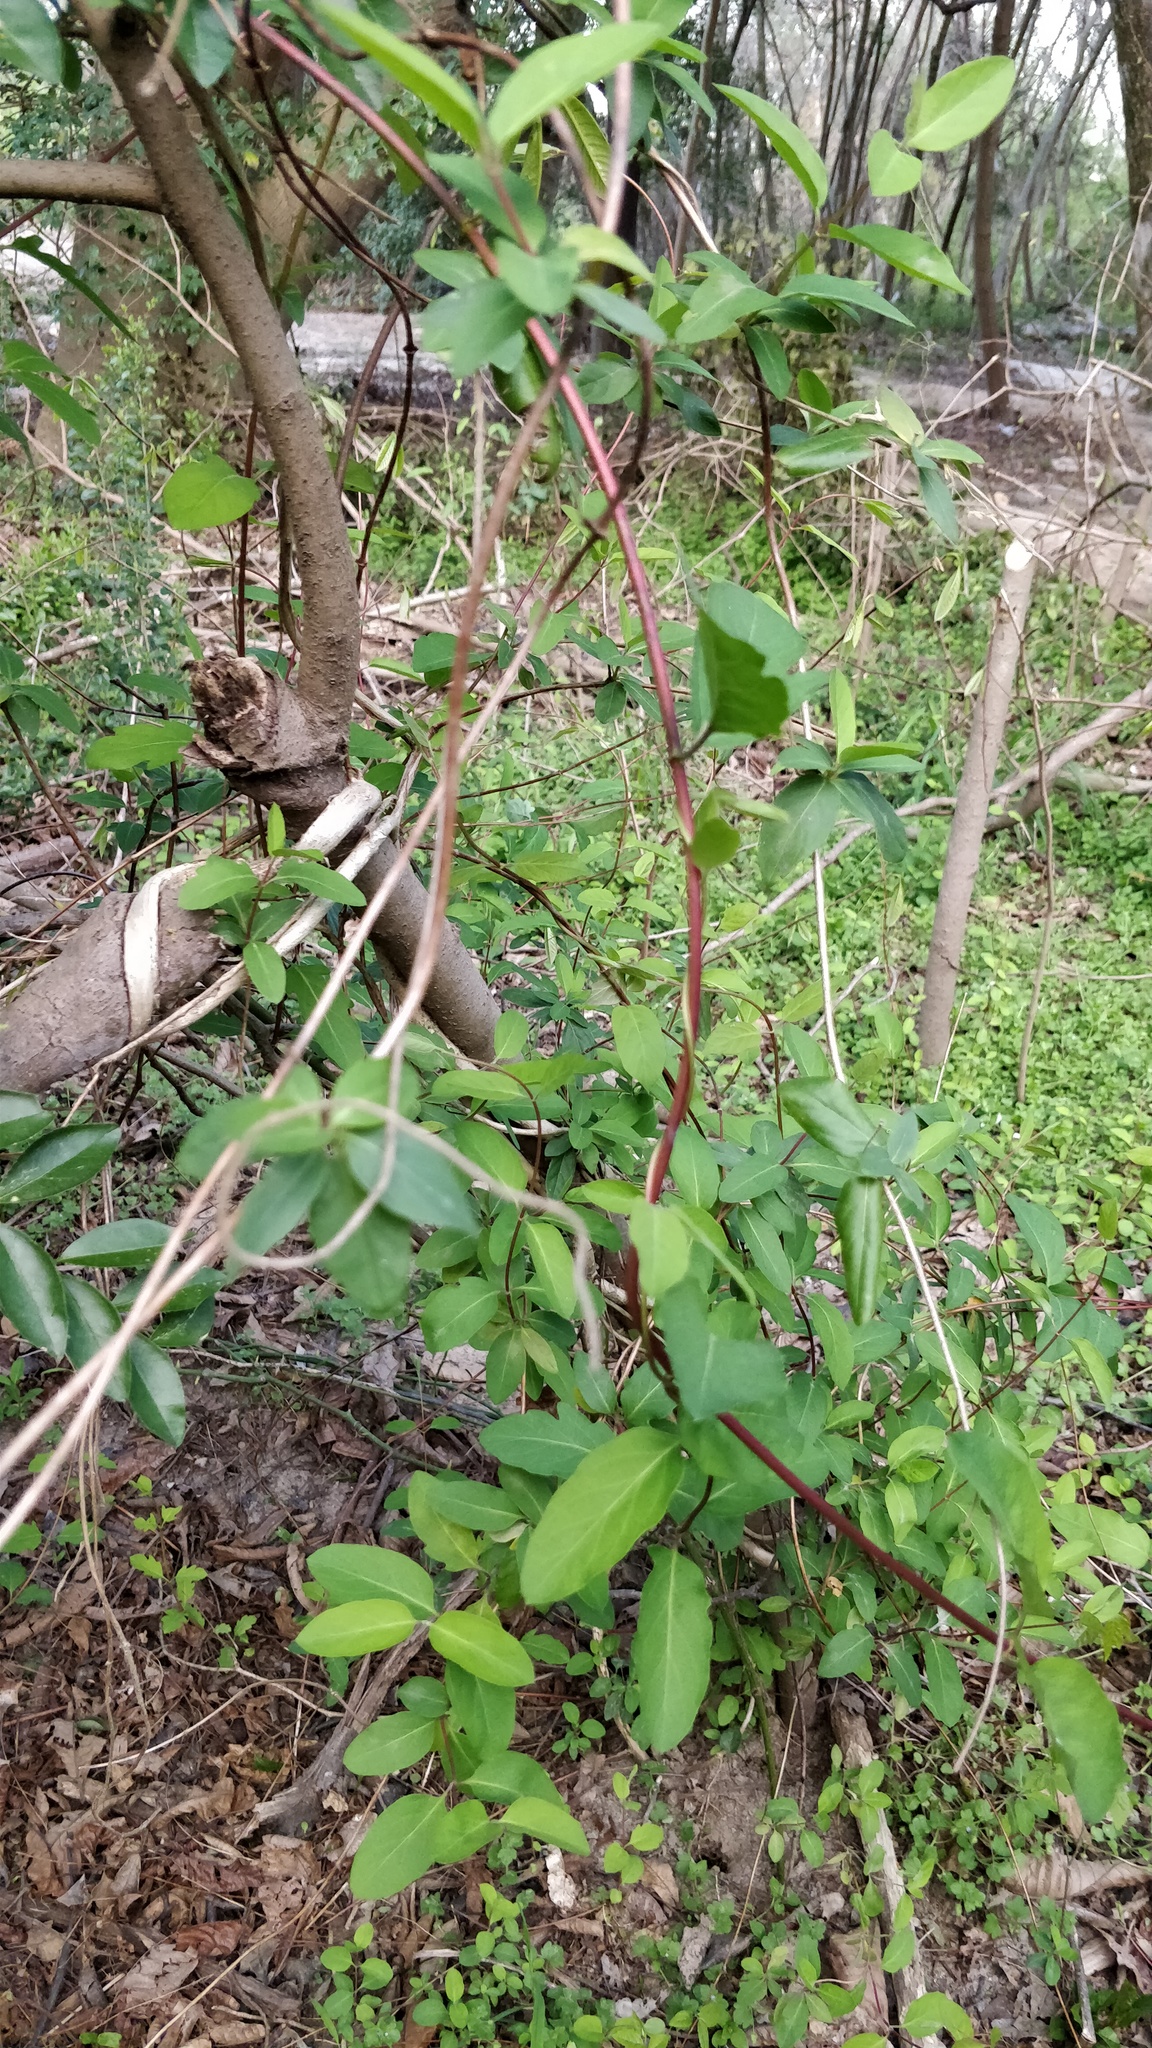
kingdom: Plantae
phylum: Tracheophyta
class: Magnoliopsida
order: Dipsacales
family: Caprifoliaceae
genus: Lonicera
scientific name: Lonicera japonica
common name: Japanese honeysuckle
